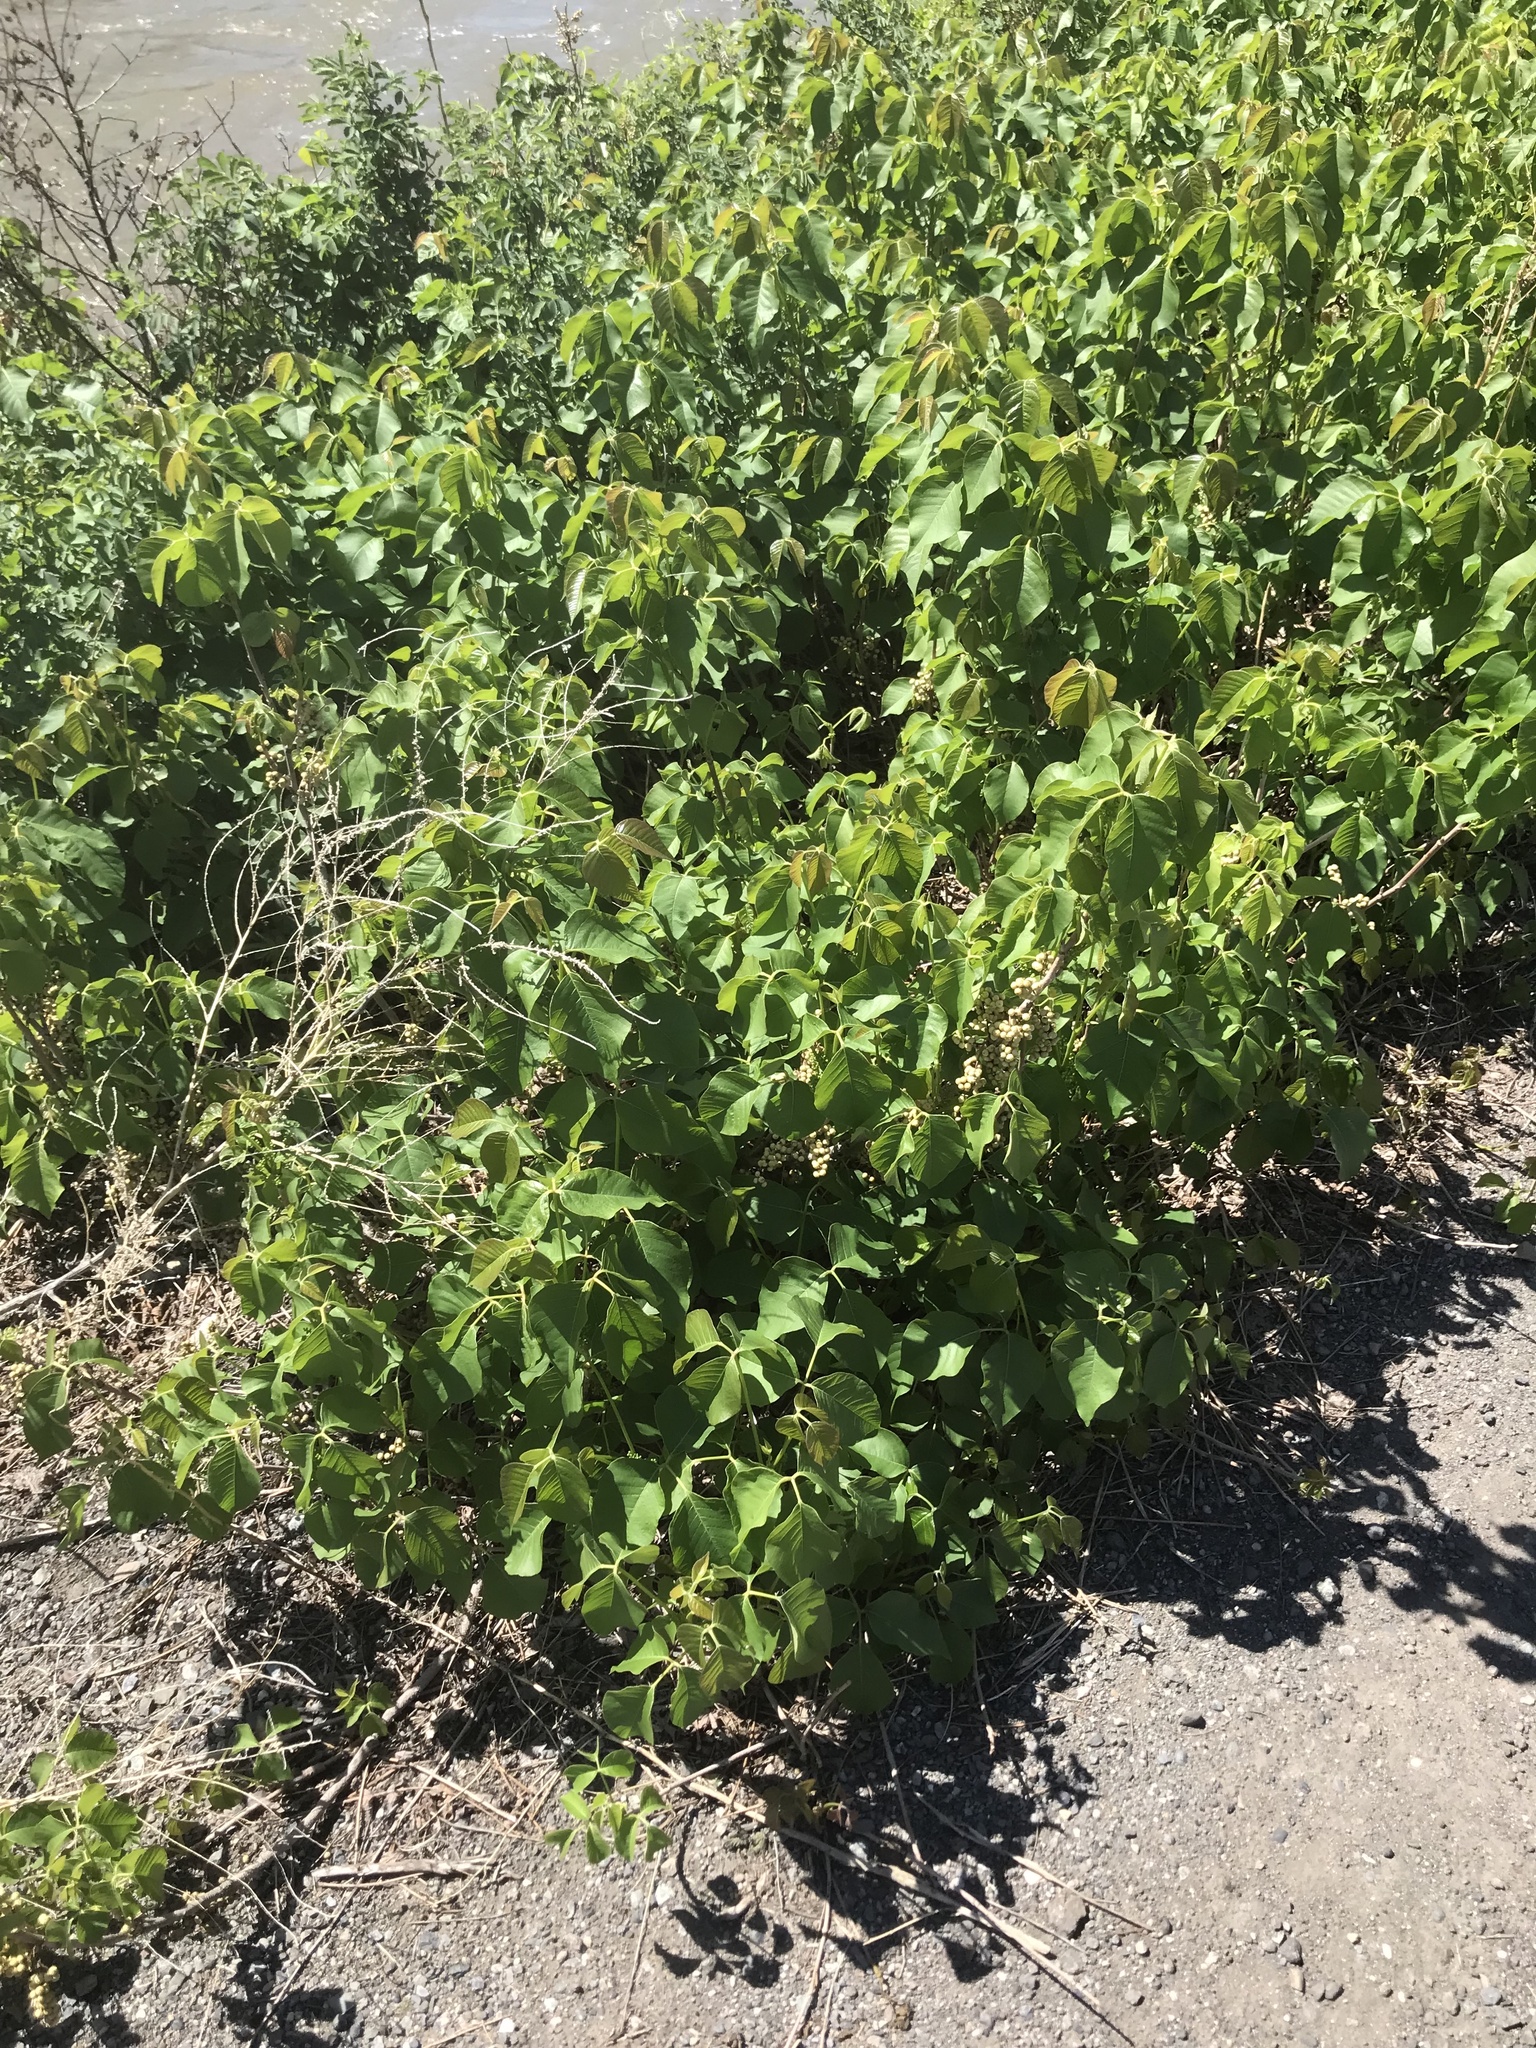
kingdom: Plantae
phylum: Tracheophyta
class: Magnoliopsida
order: Sapindales
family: Anacardiaceae
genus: Toxicodendron
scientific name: Toxicodendron rydbergii
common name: Rydberg's poison-ivy
